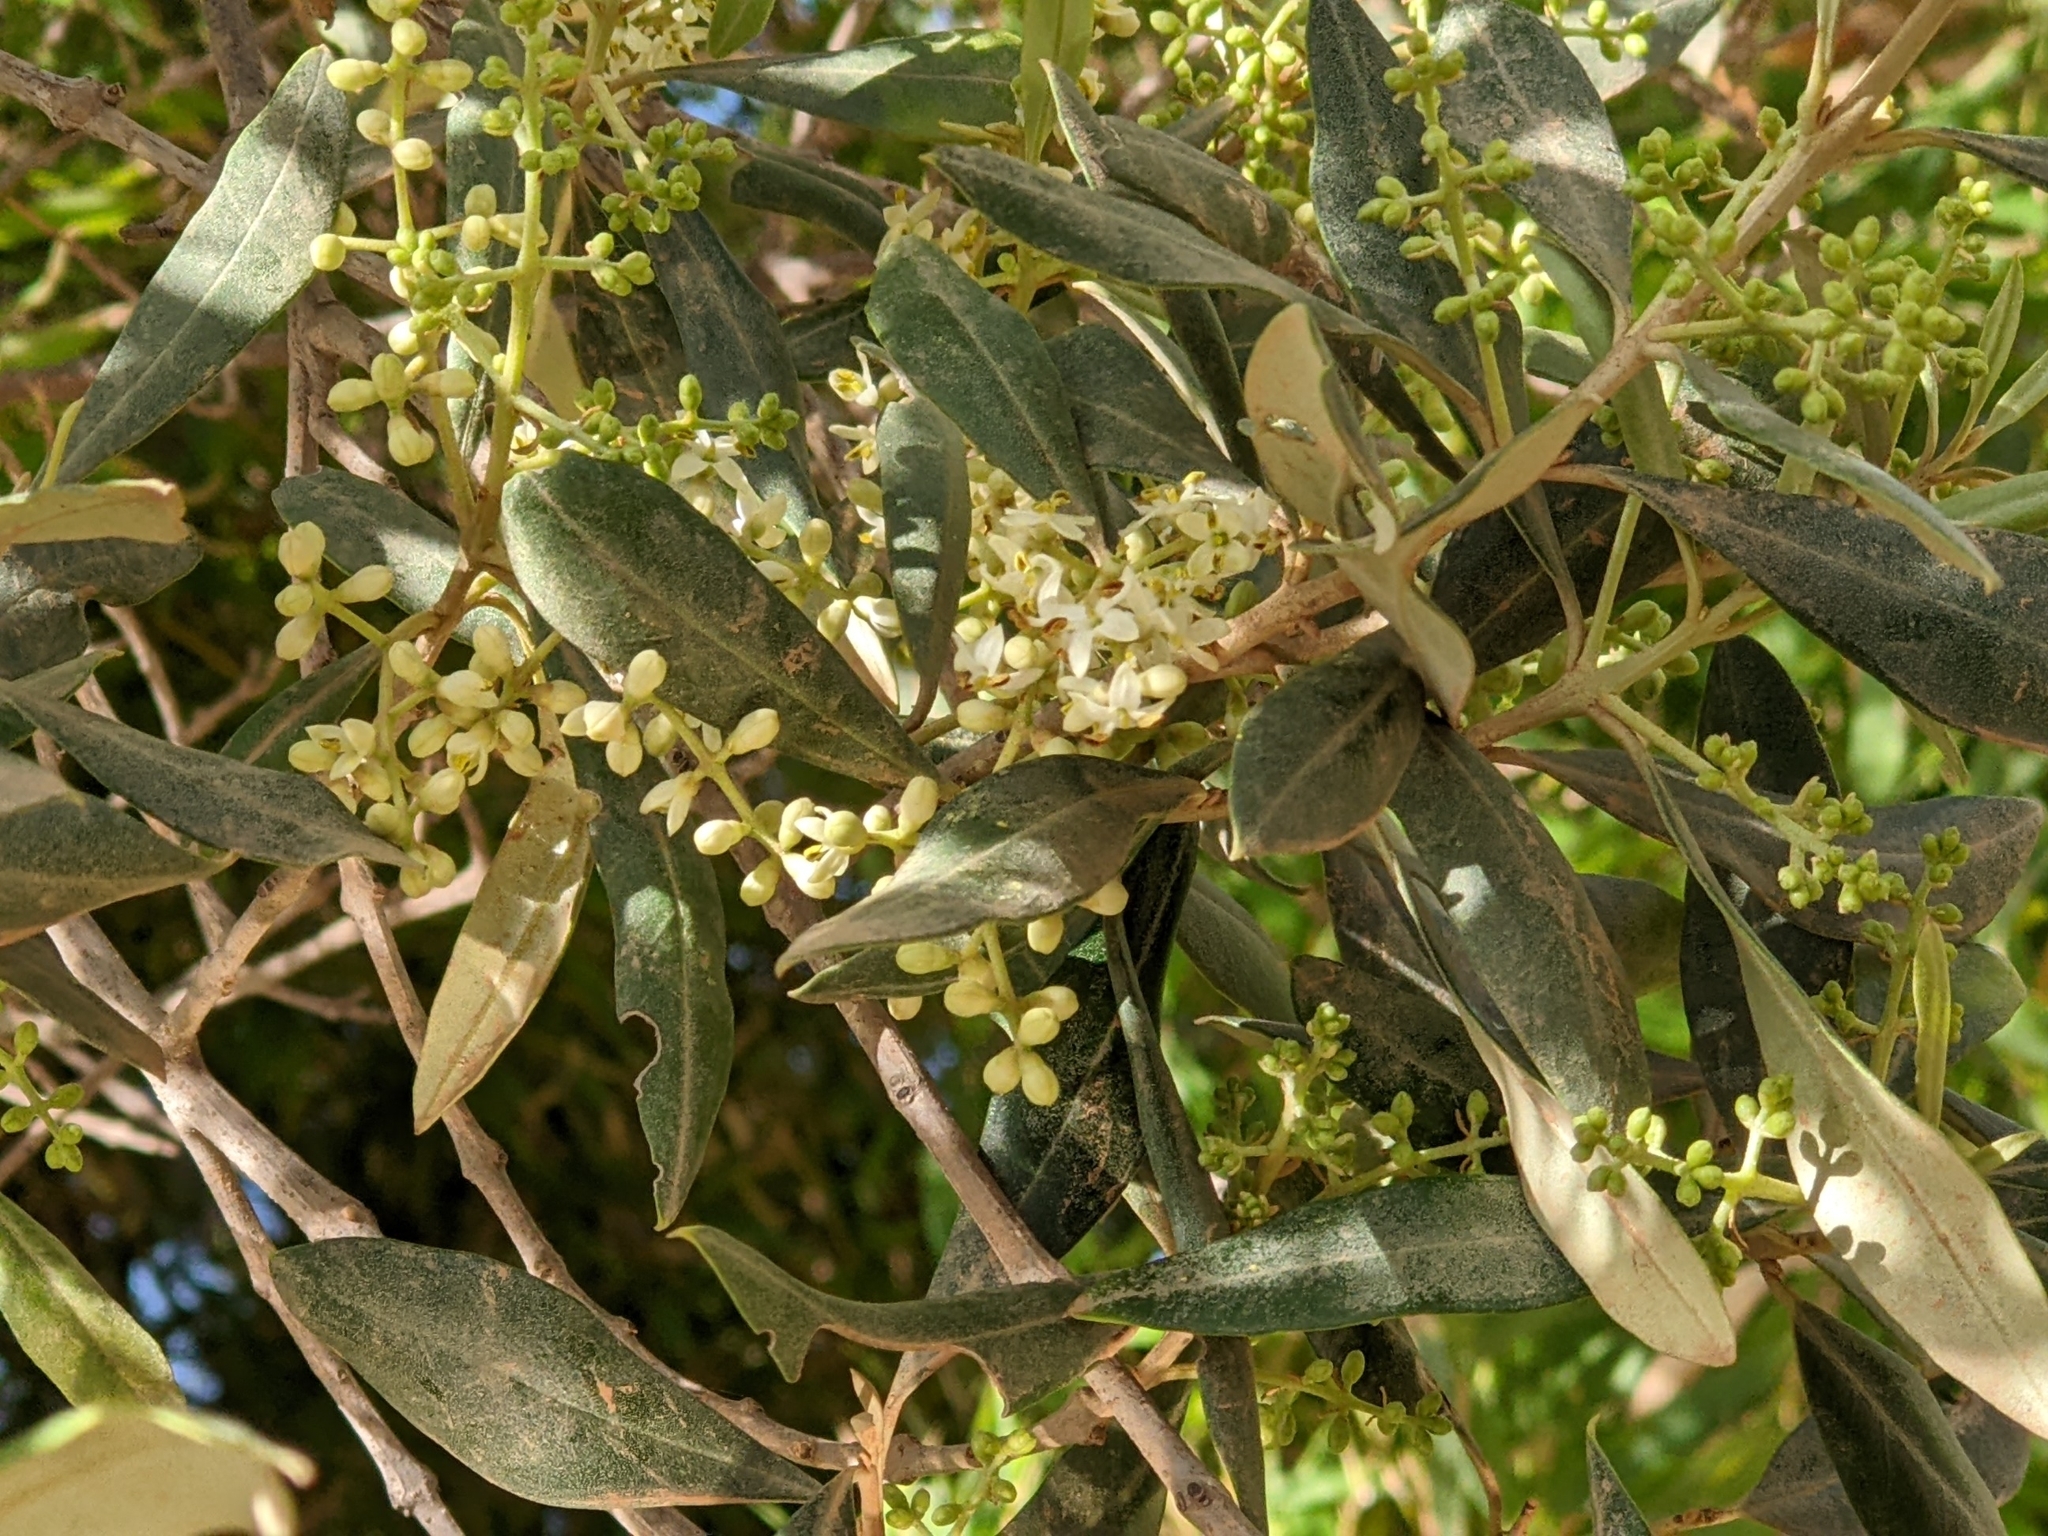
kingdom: Plantae
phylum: Tracheophyta
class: Magnoliopsida
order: Lamiales
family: Oleaceae
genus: Olea
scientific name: Olea europaea
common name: Olive
